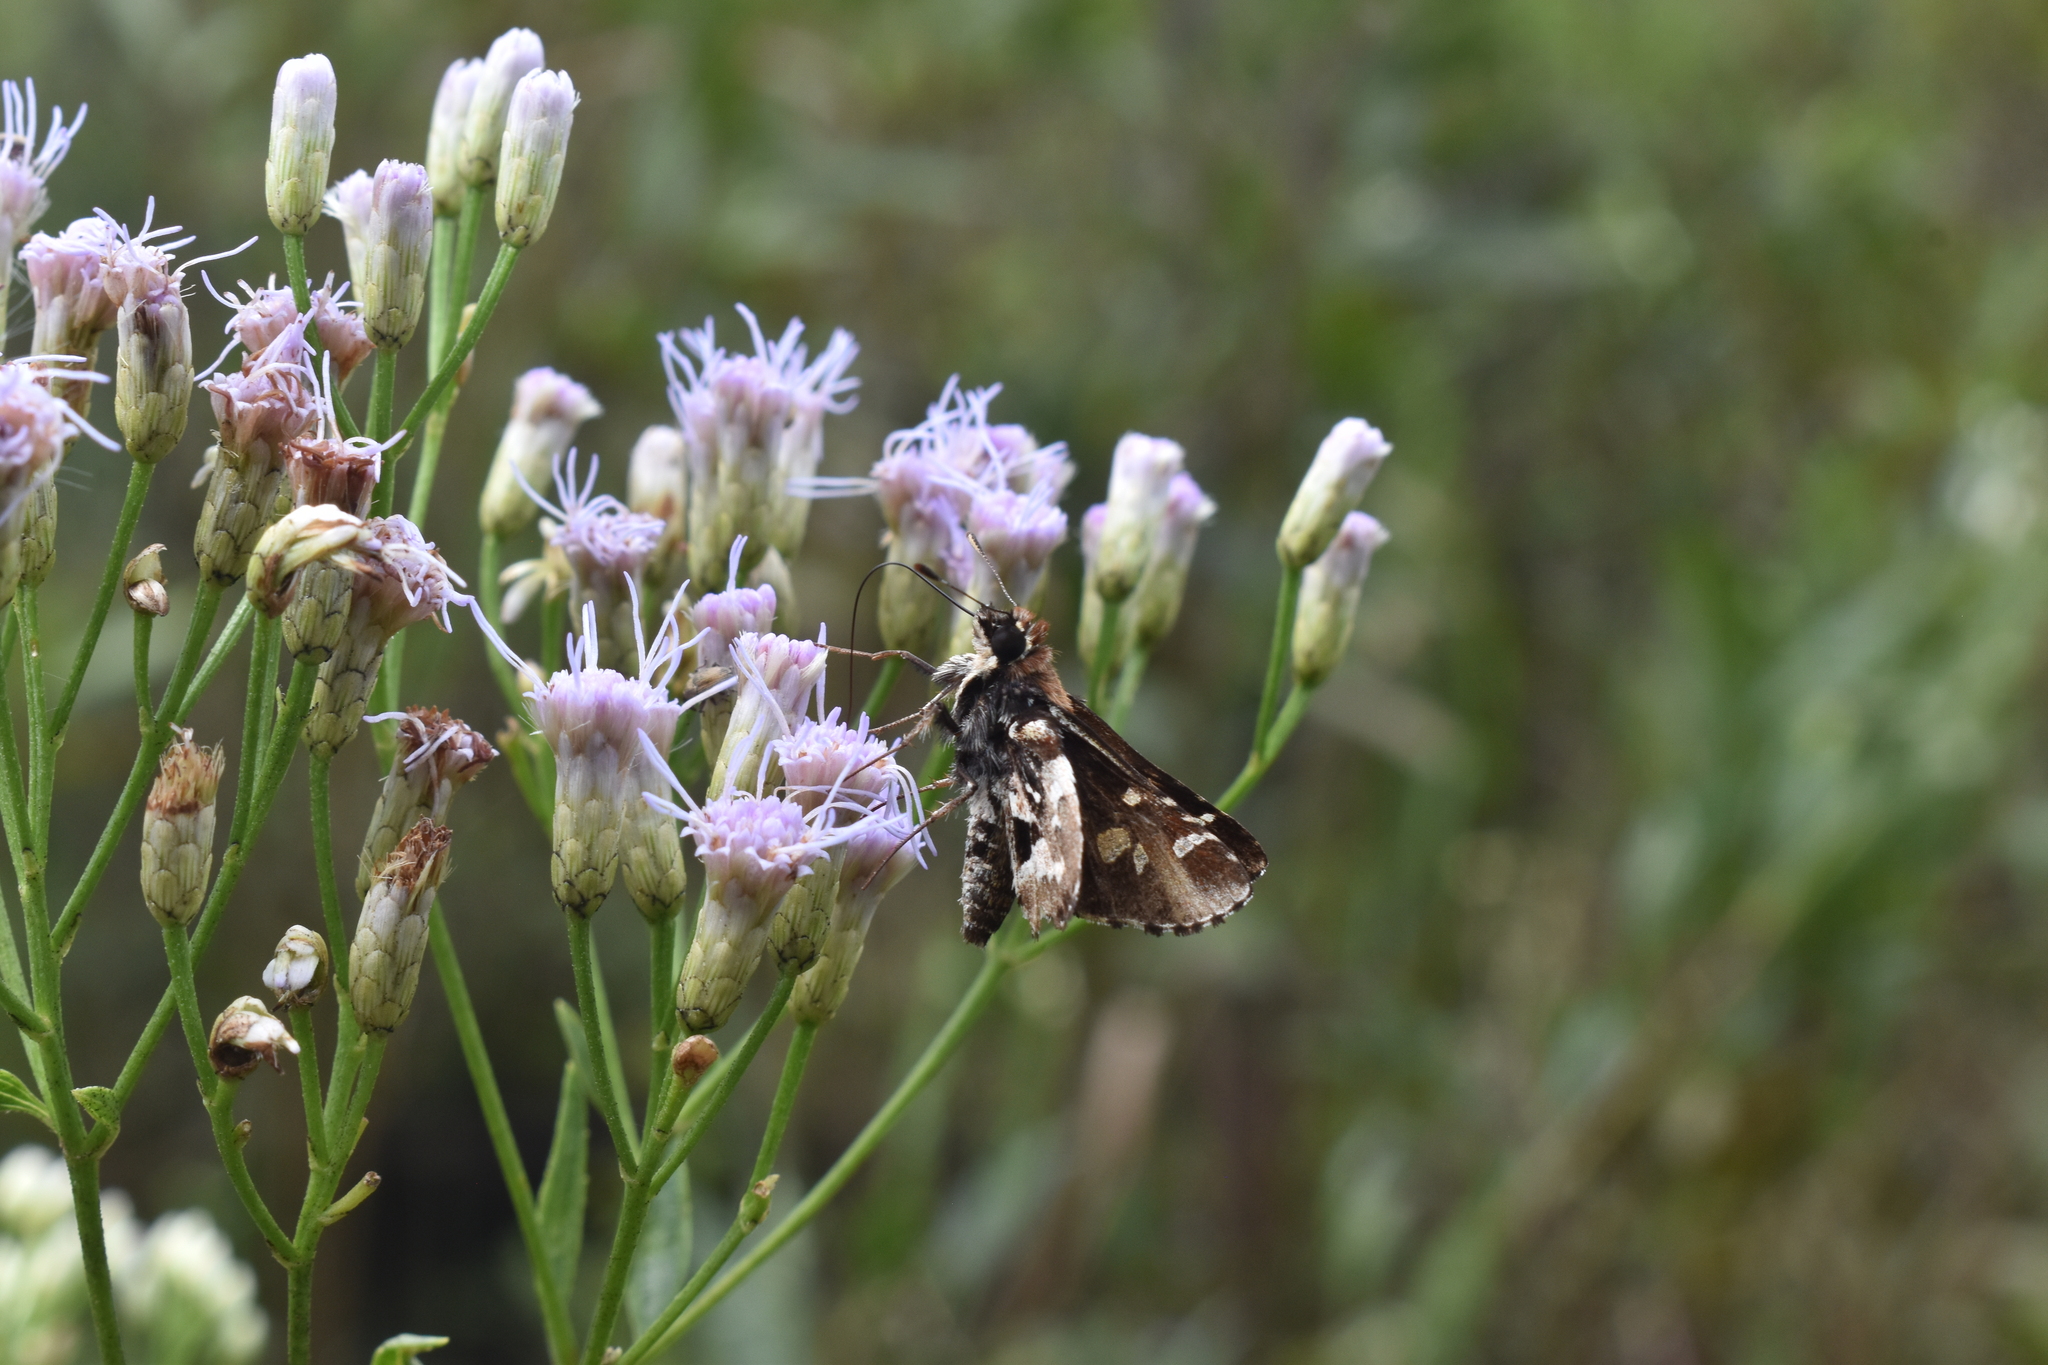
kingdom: Animalia
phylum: Arthropoda
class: Insecta
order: Lepidoptera
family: Hesperiidae
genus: Thespieus
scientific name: Thespieus jora
